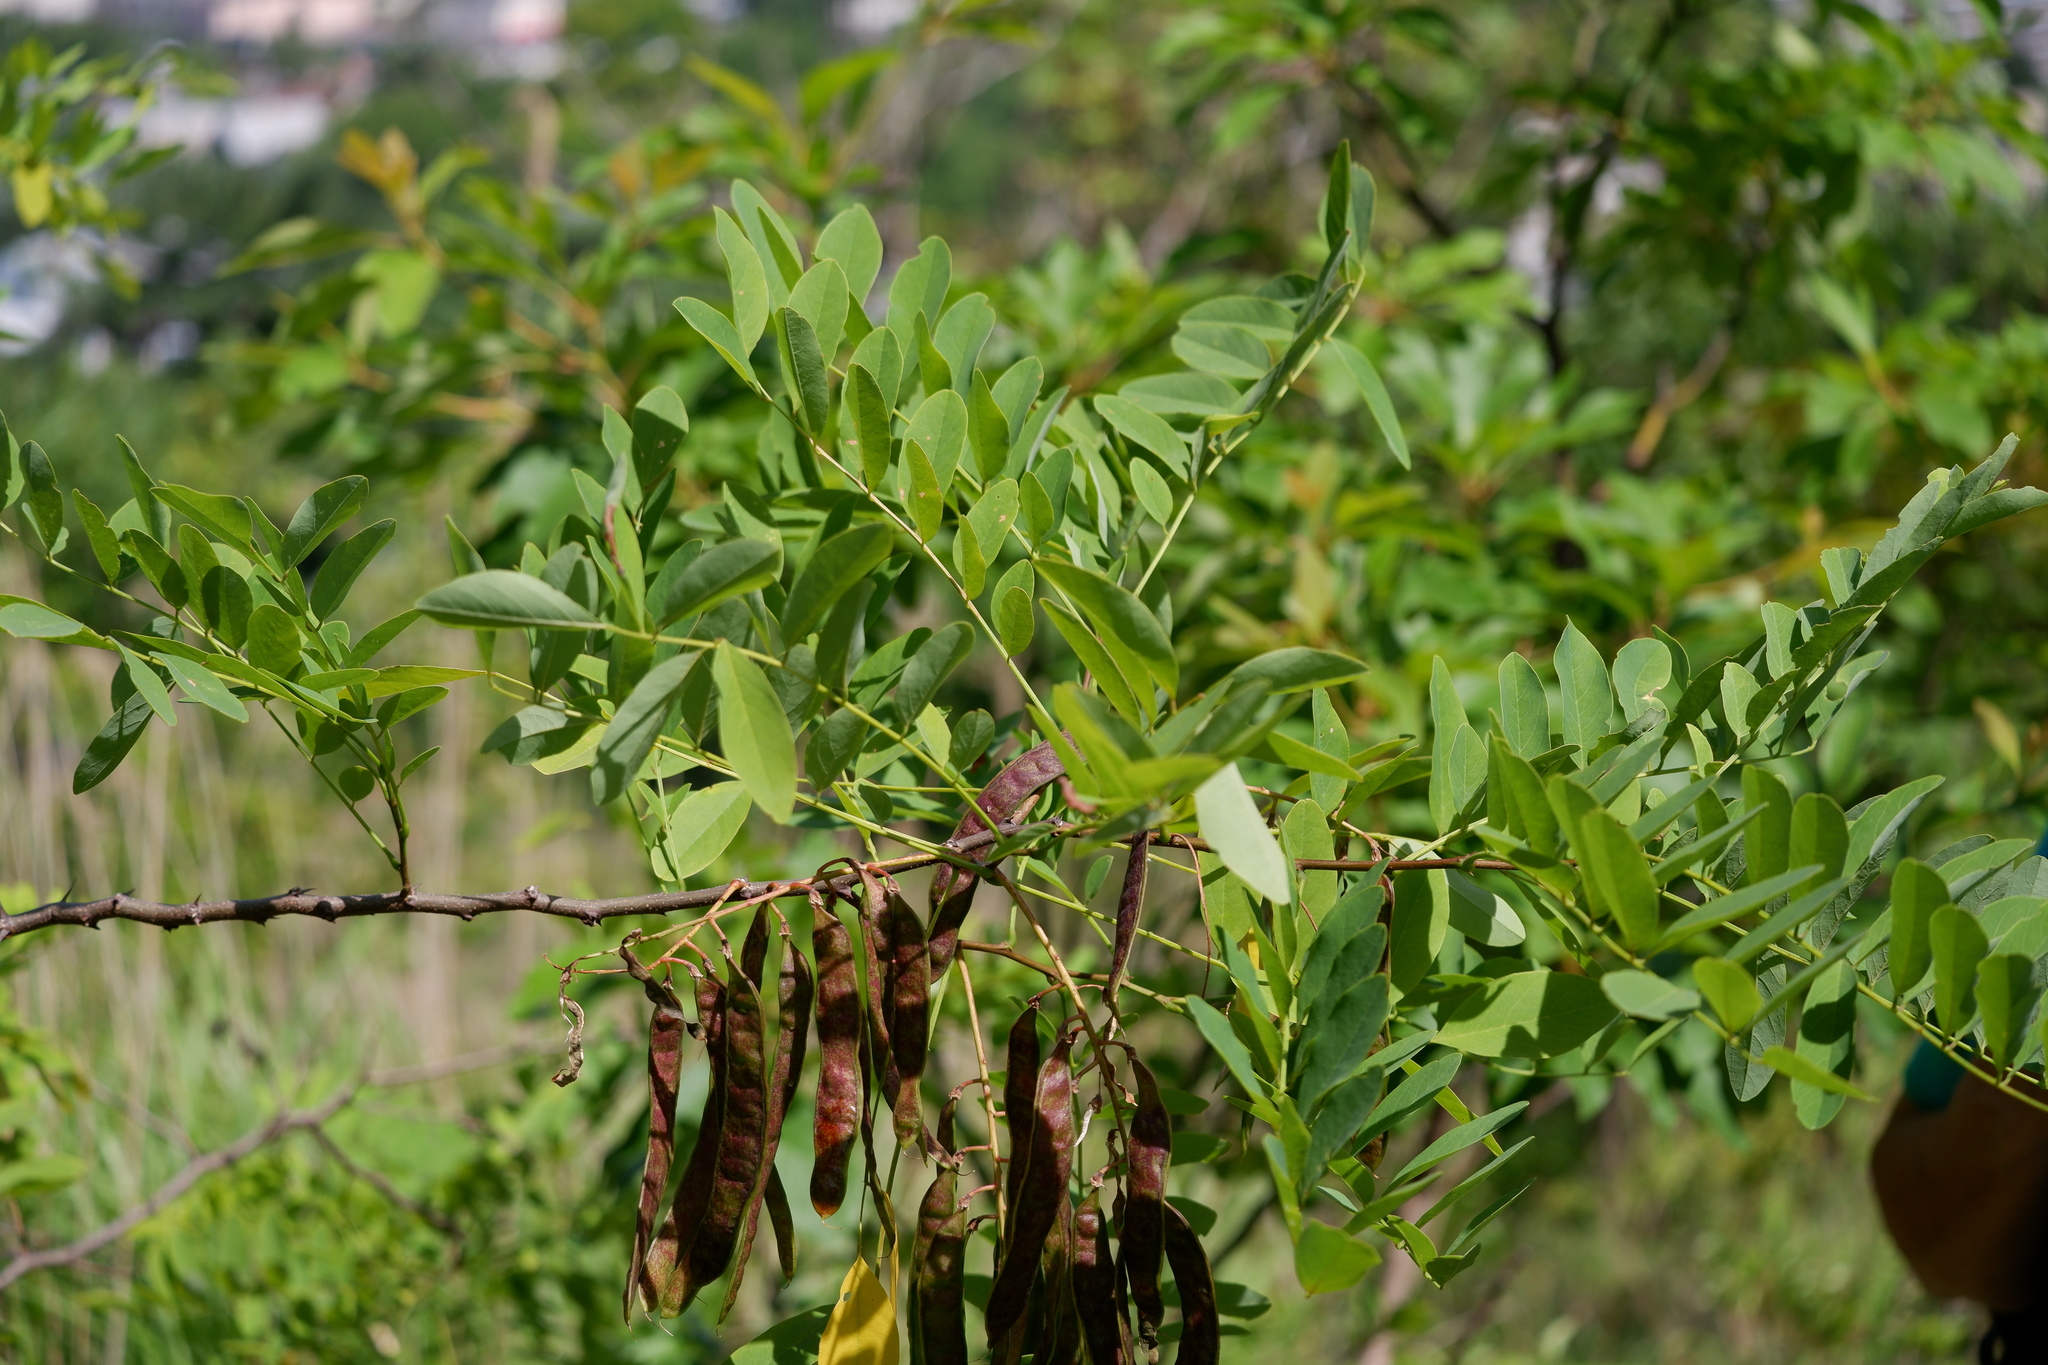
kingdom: Plantae
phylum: Tracheophyta
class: Magnoliopsida
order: Fabales
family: Fabaceae
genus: Robinia
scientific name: Robinia pseudoacacia
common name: Black locust
